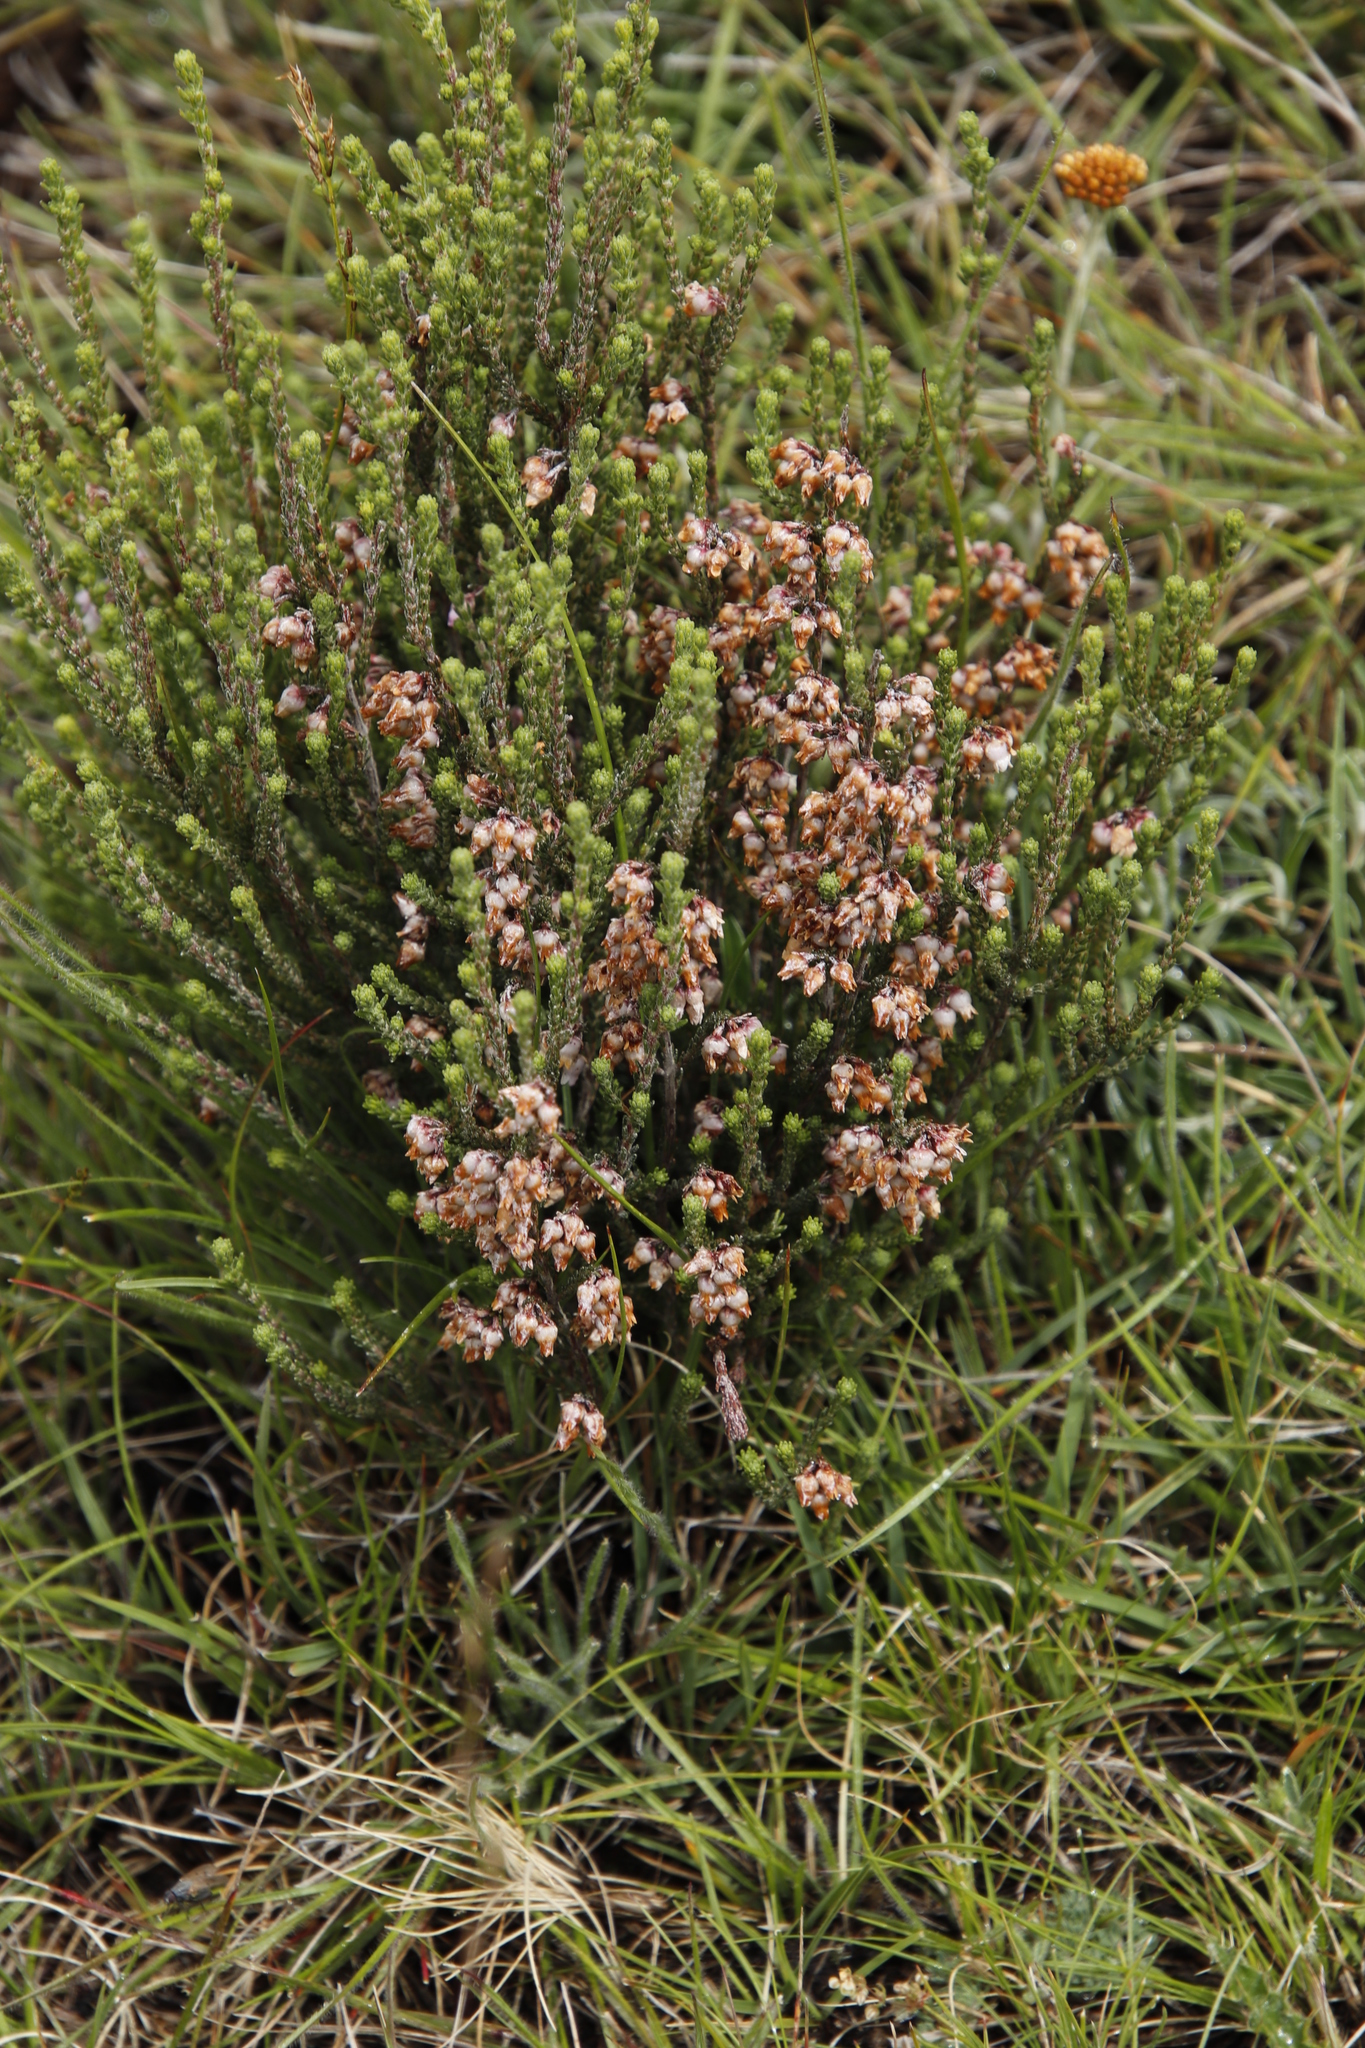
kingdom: Plantae
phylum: Tracheophyta
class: Magnoliopsida
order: Ericales
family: Ericaceae
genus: Erica
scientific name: Erica schlechteri
